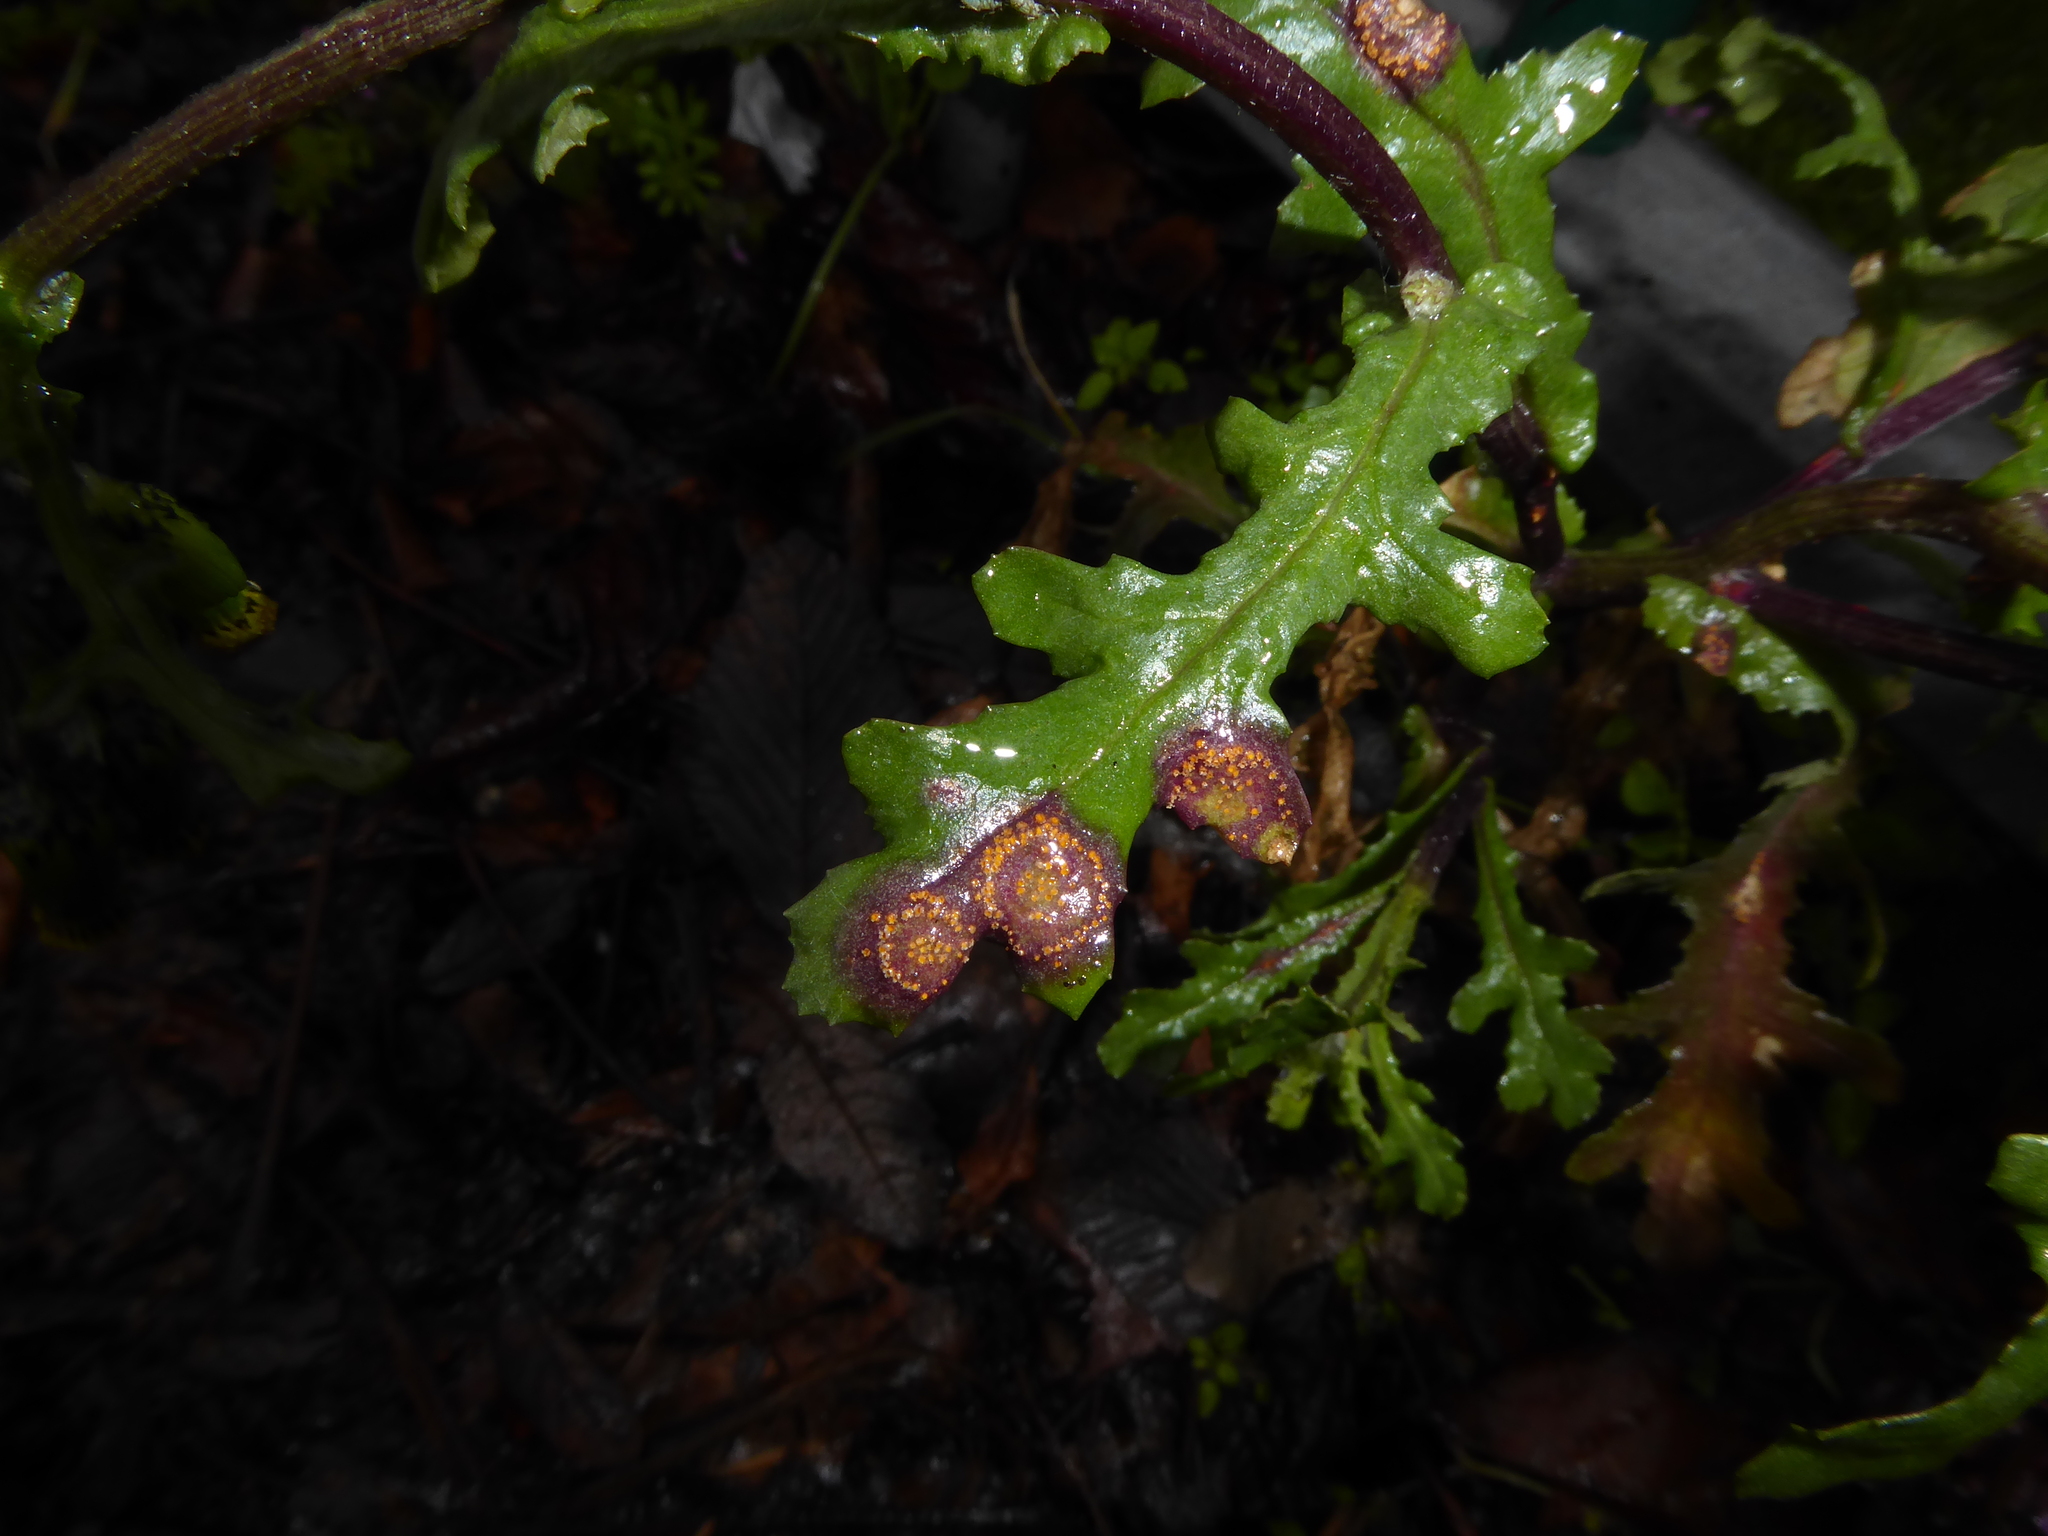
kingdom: Plantae
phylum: Tracheophyta
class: Magnoliopsida
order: Asterales
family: Asteraceae
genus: Senecio
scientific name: Senecio vulgaris
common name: Old-man-in-the-spring
